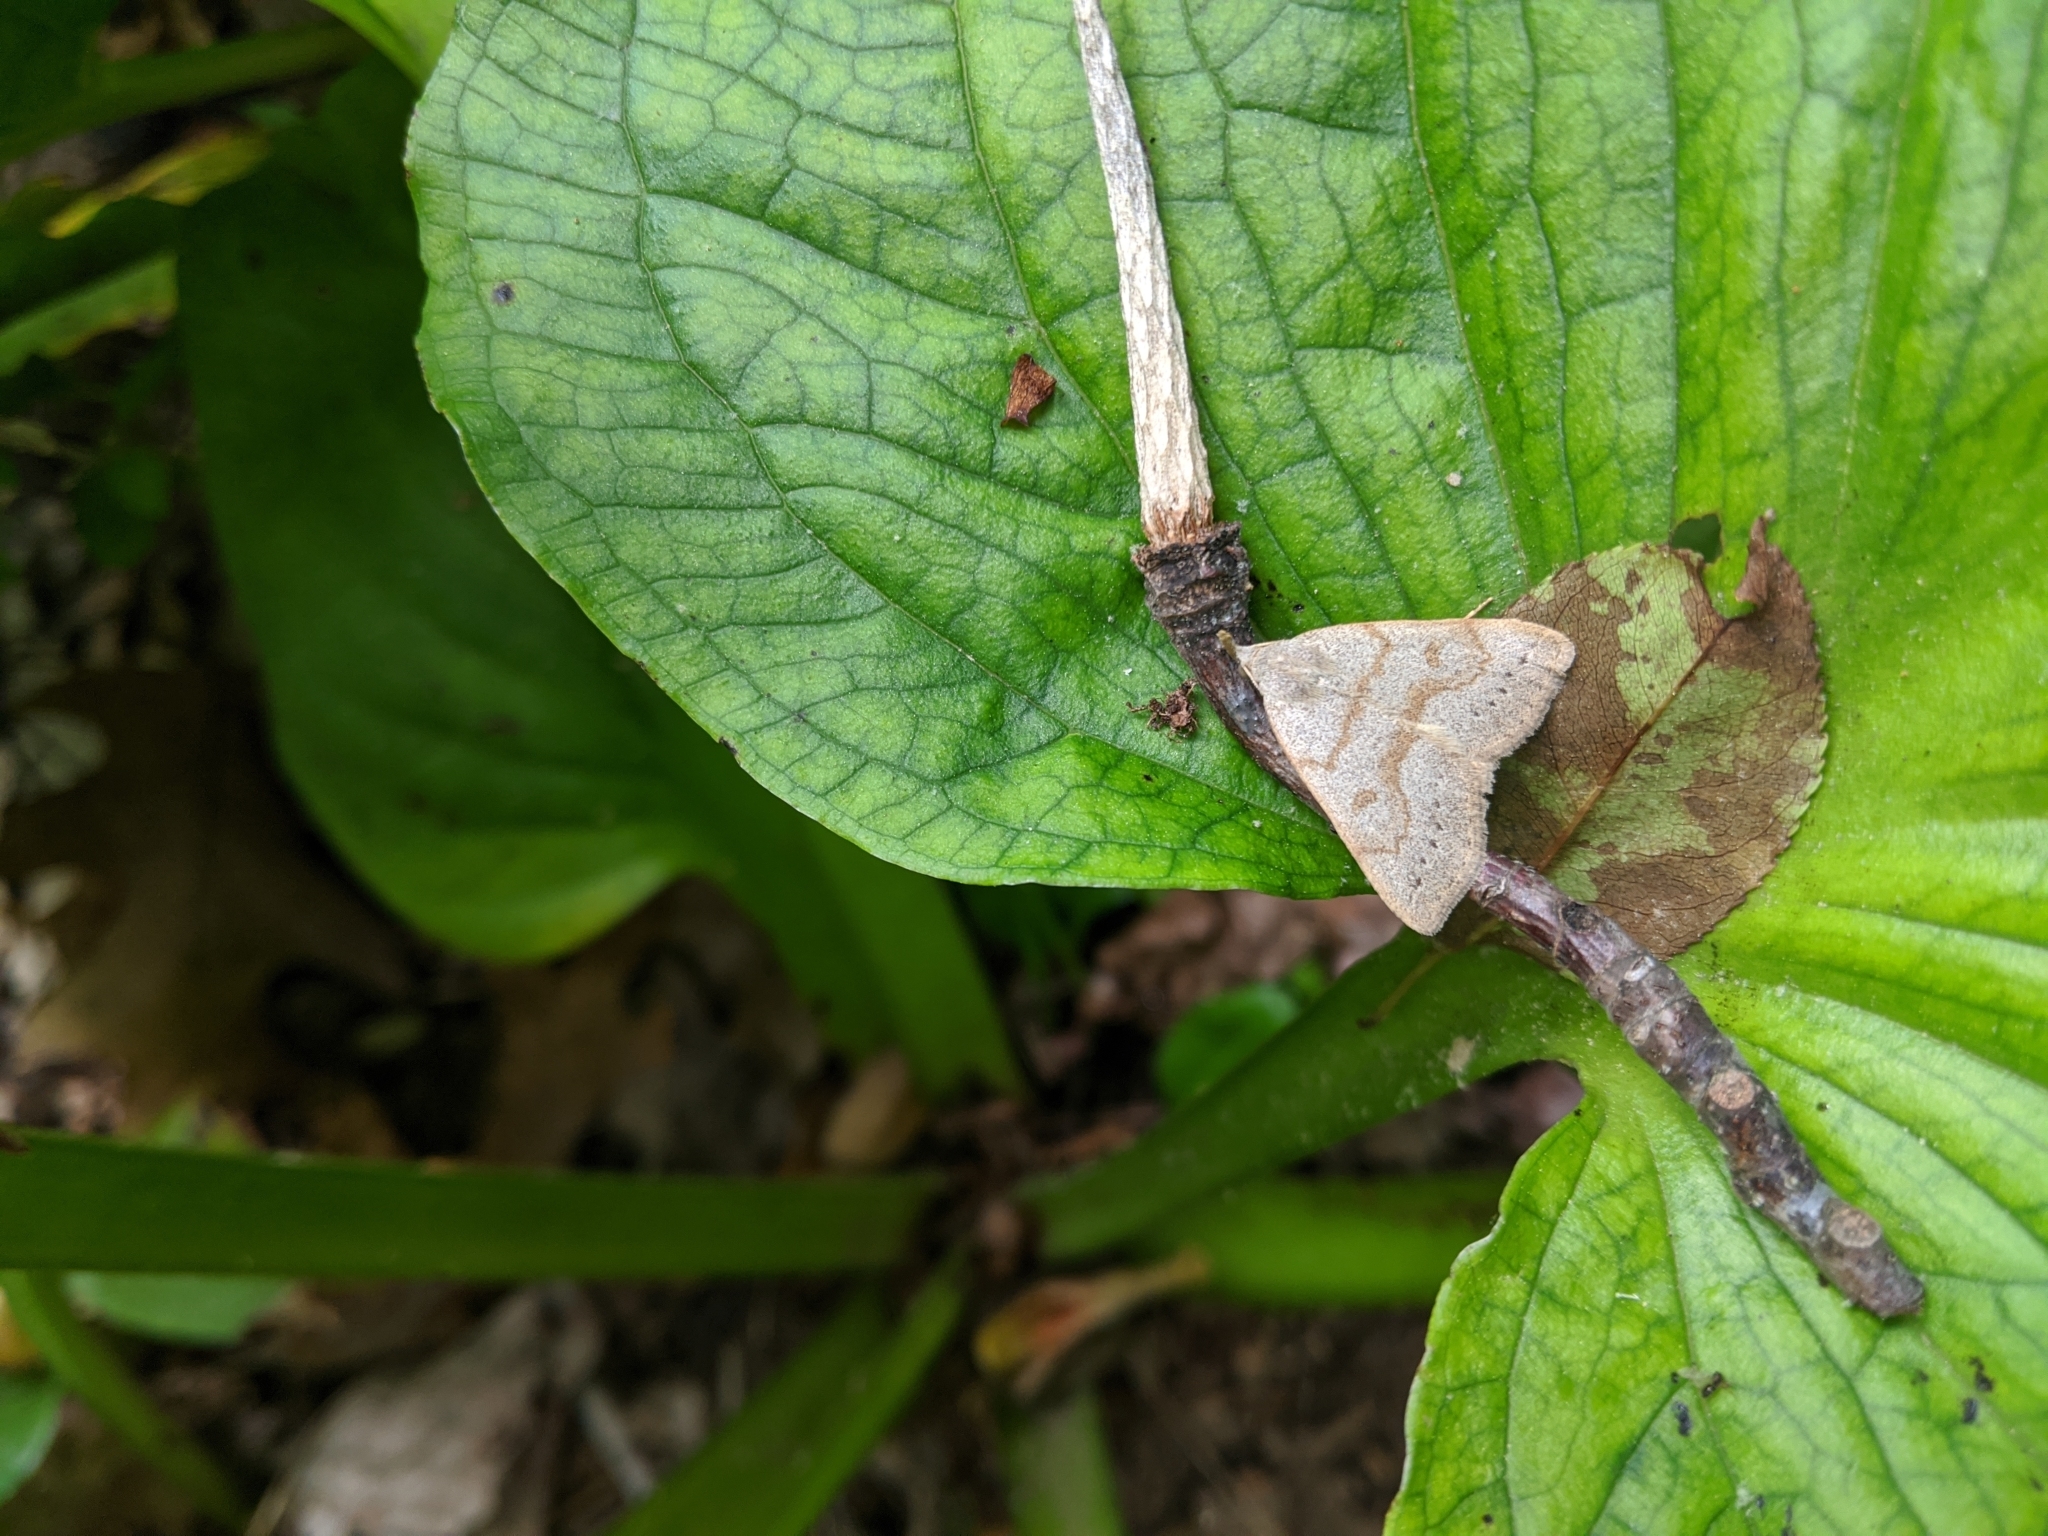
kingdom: Animalia
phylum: Arthropoda
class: Insecta
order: Lepidoptera
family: Erebidae
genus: Macrochilo
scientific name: Macrochilo morbidalis
